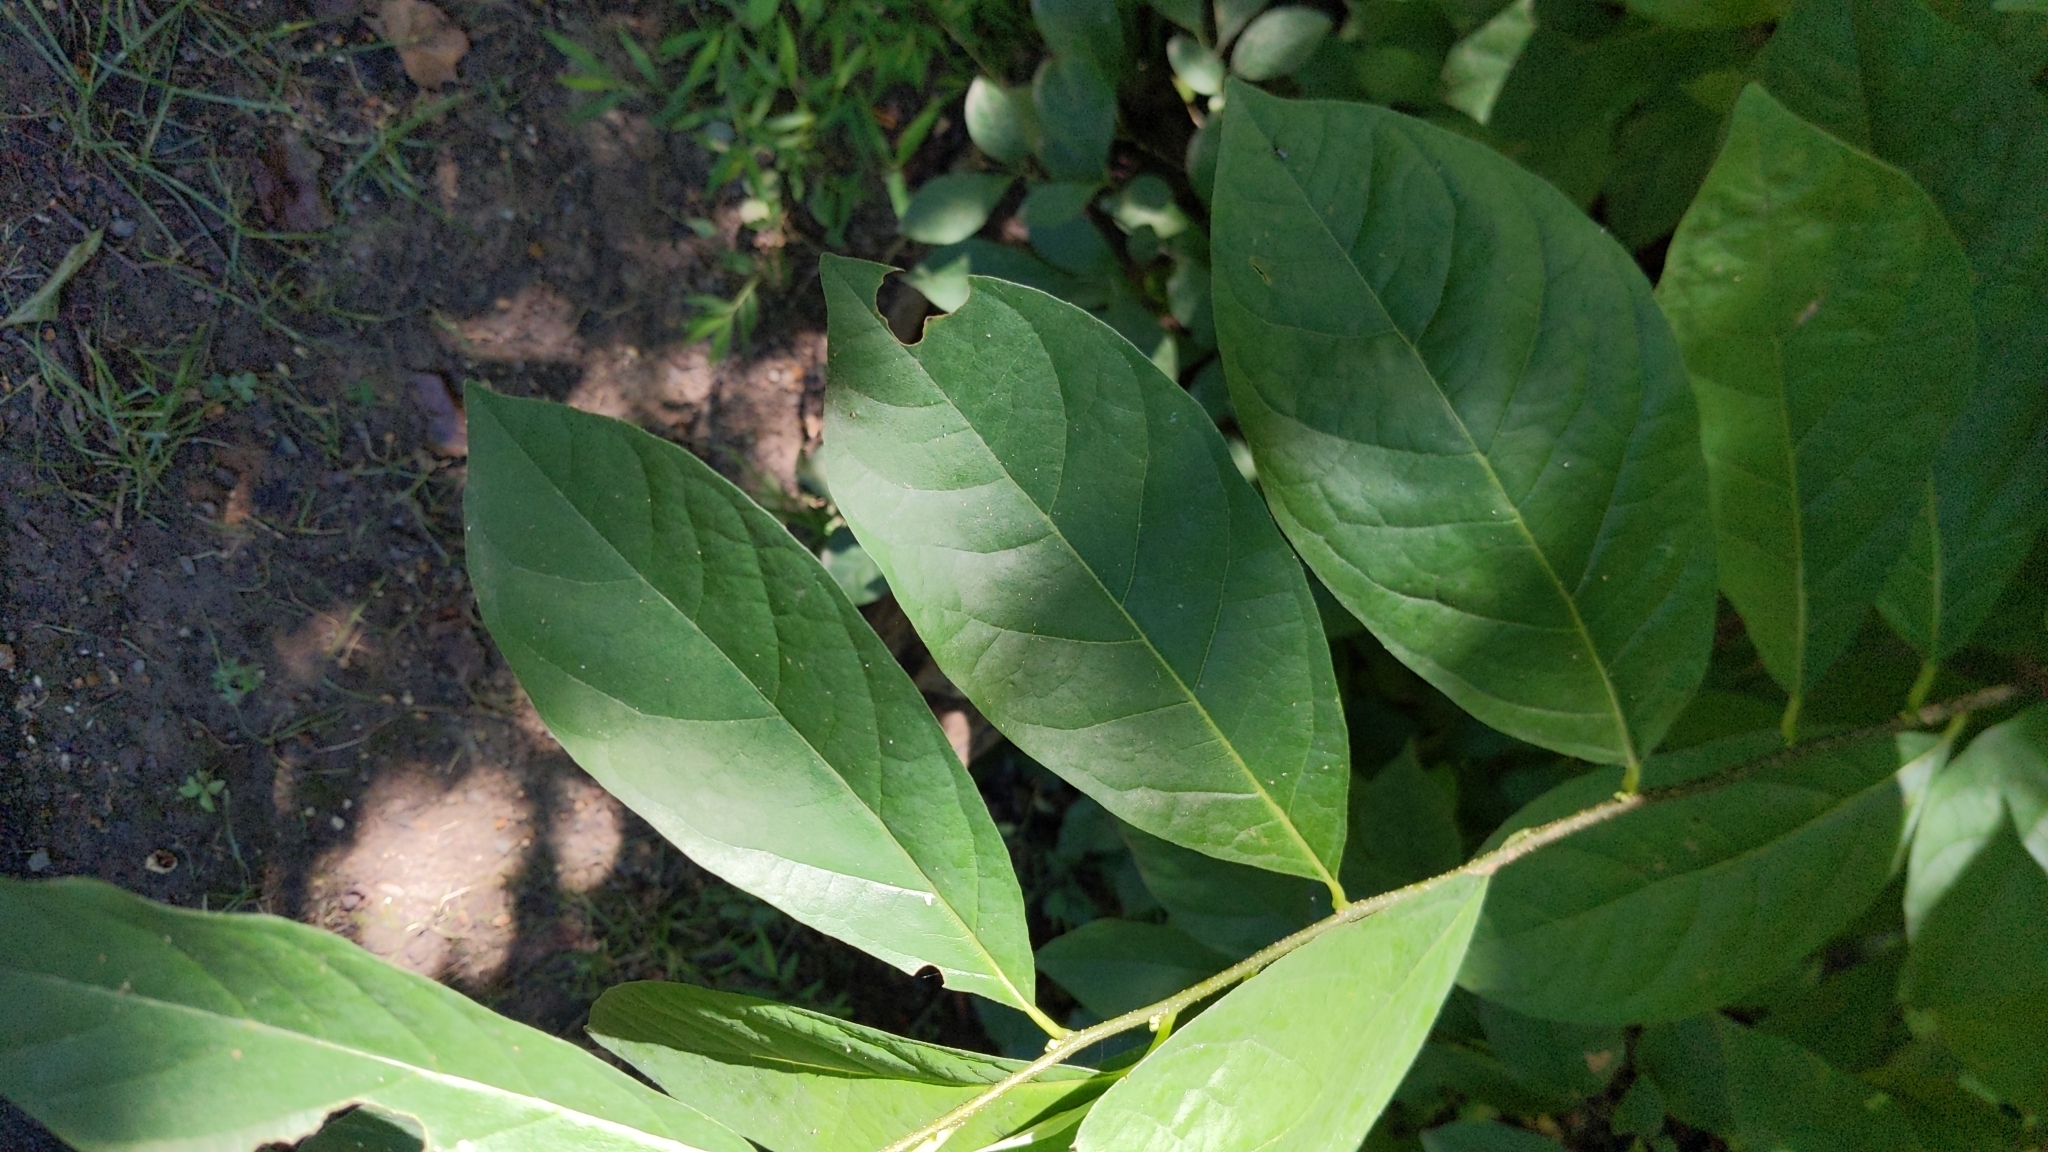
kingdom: Plantae
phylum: Tracheophyta
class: Magnoliopsida
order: Laurales
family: Lauraceae
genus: Lindera
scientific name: Lindera benzoin
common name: Spicebush
